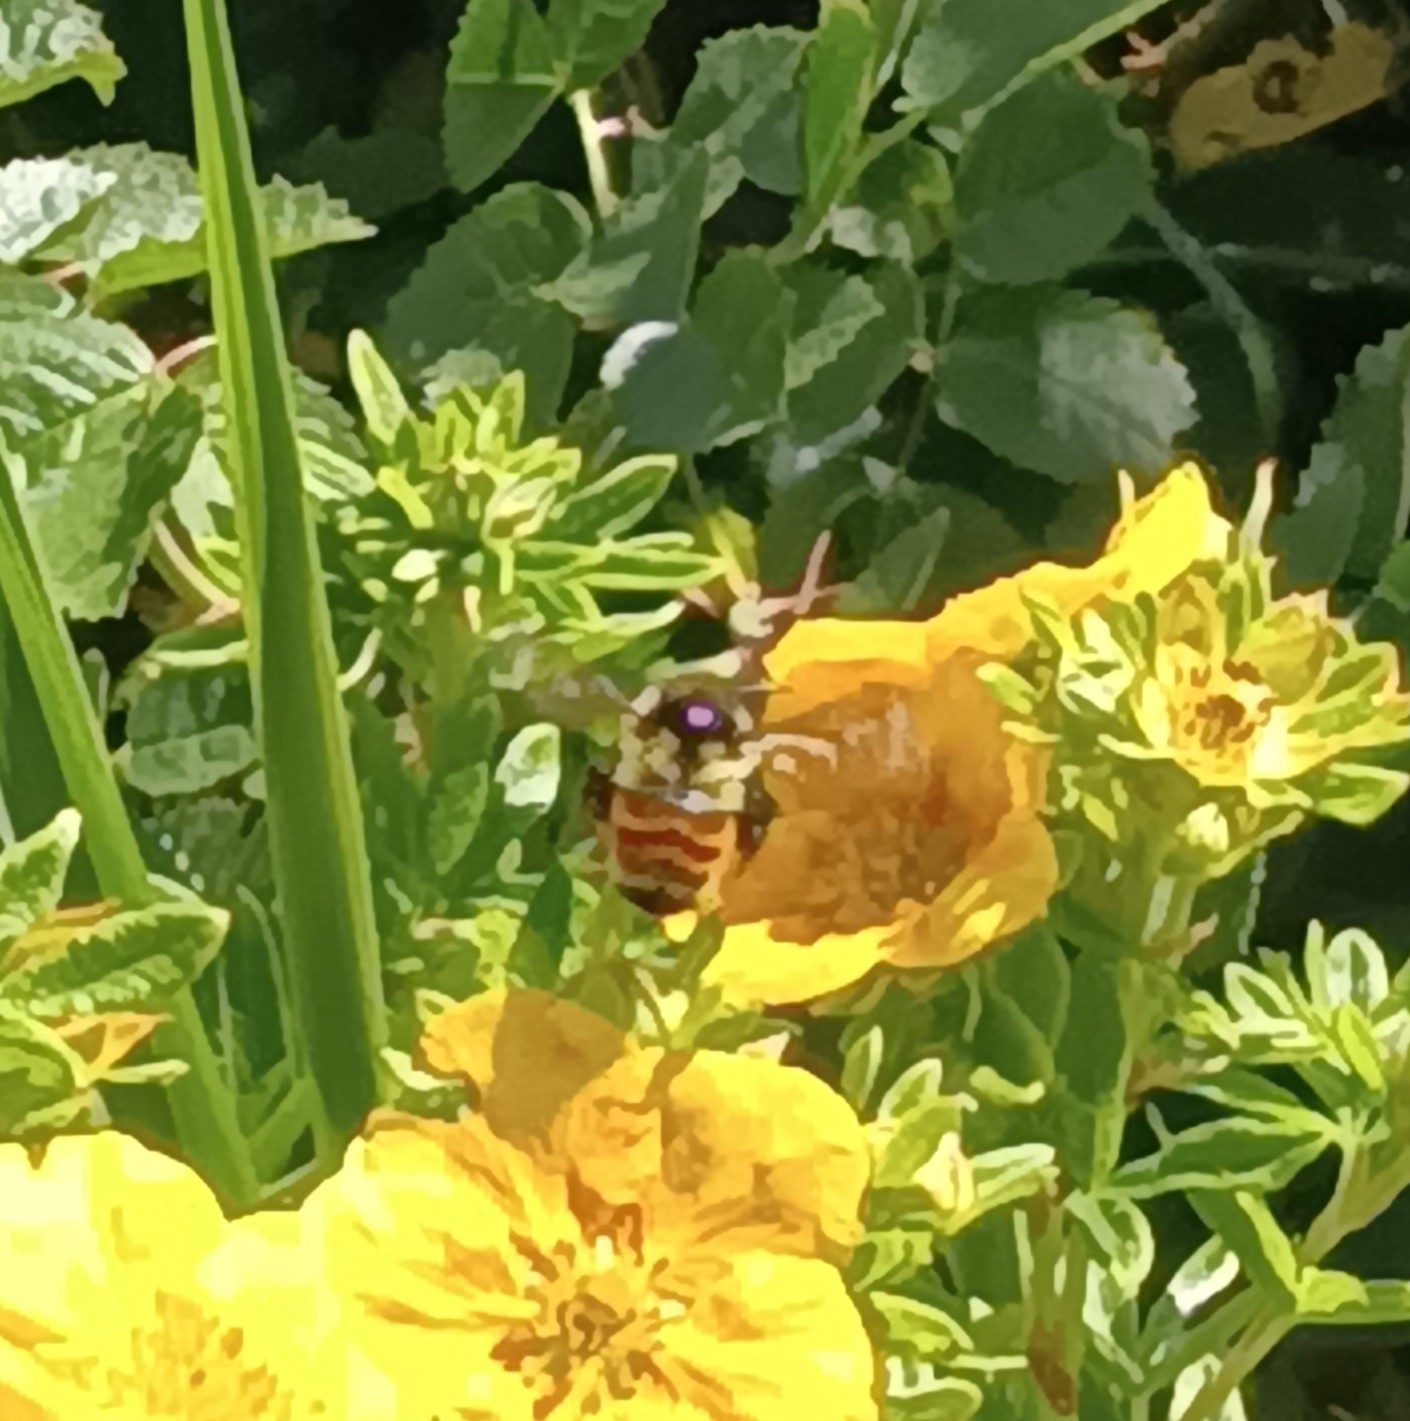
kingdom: Animalia
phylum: Arthropoda
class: Insecta
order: Hymenoptera
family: Apidae
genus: Bombus
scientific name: Bombus ternarius
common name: Tri-colored bumble bee
